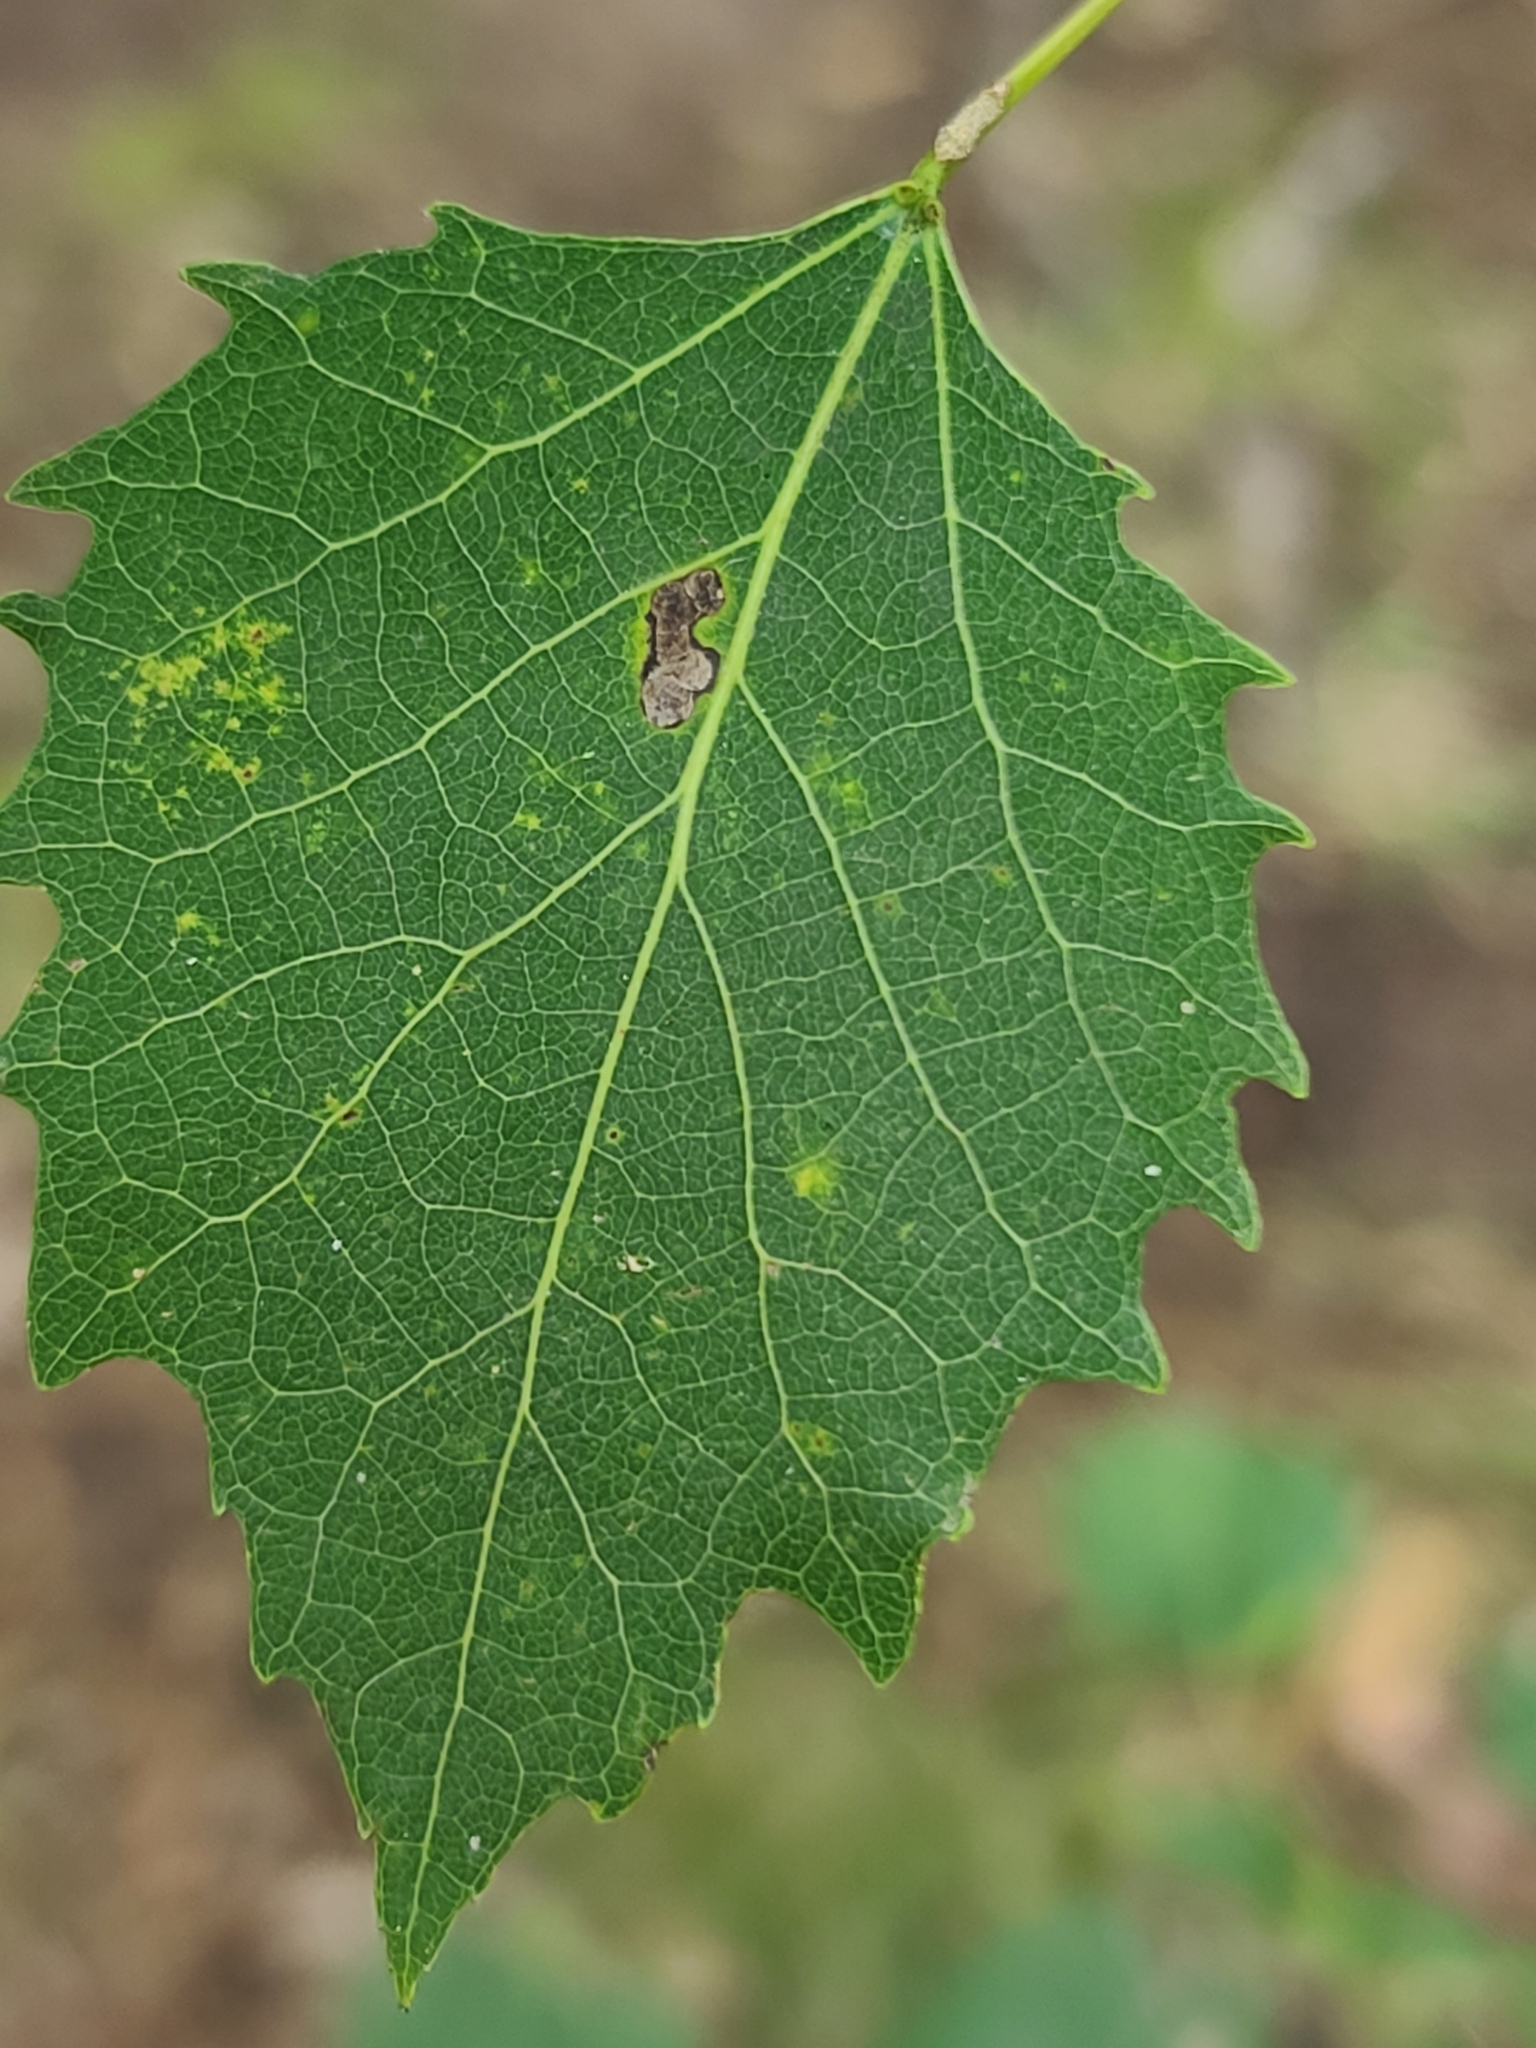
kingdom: Plantae
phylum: Tracheophyta
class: Magnoliopsida
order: Malpighiales
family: Salicaceae
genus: Populus
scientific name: Populus grandidentata
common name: Bigtooth aspen
